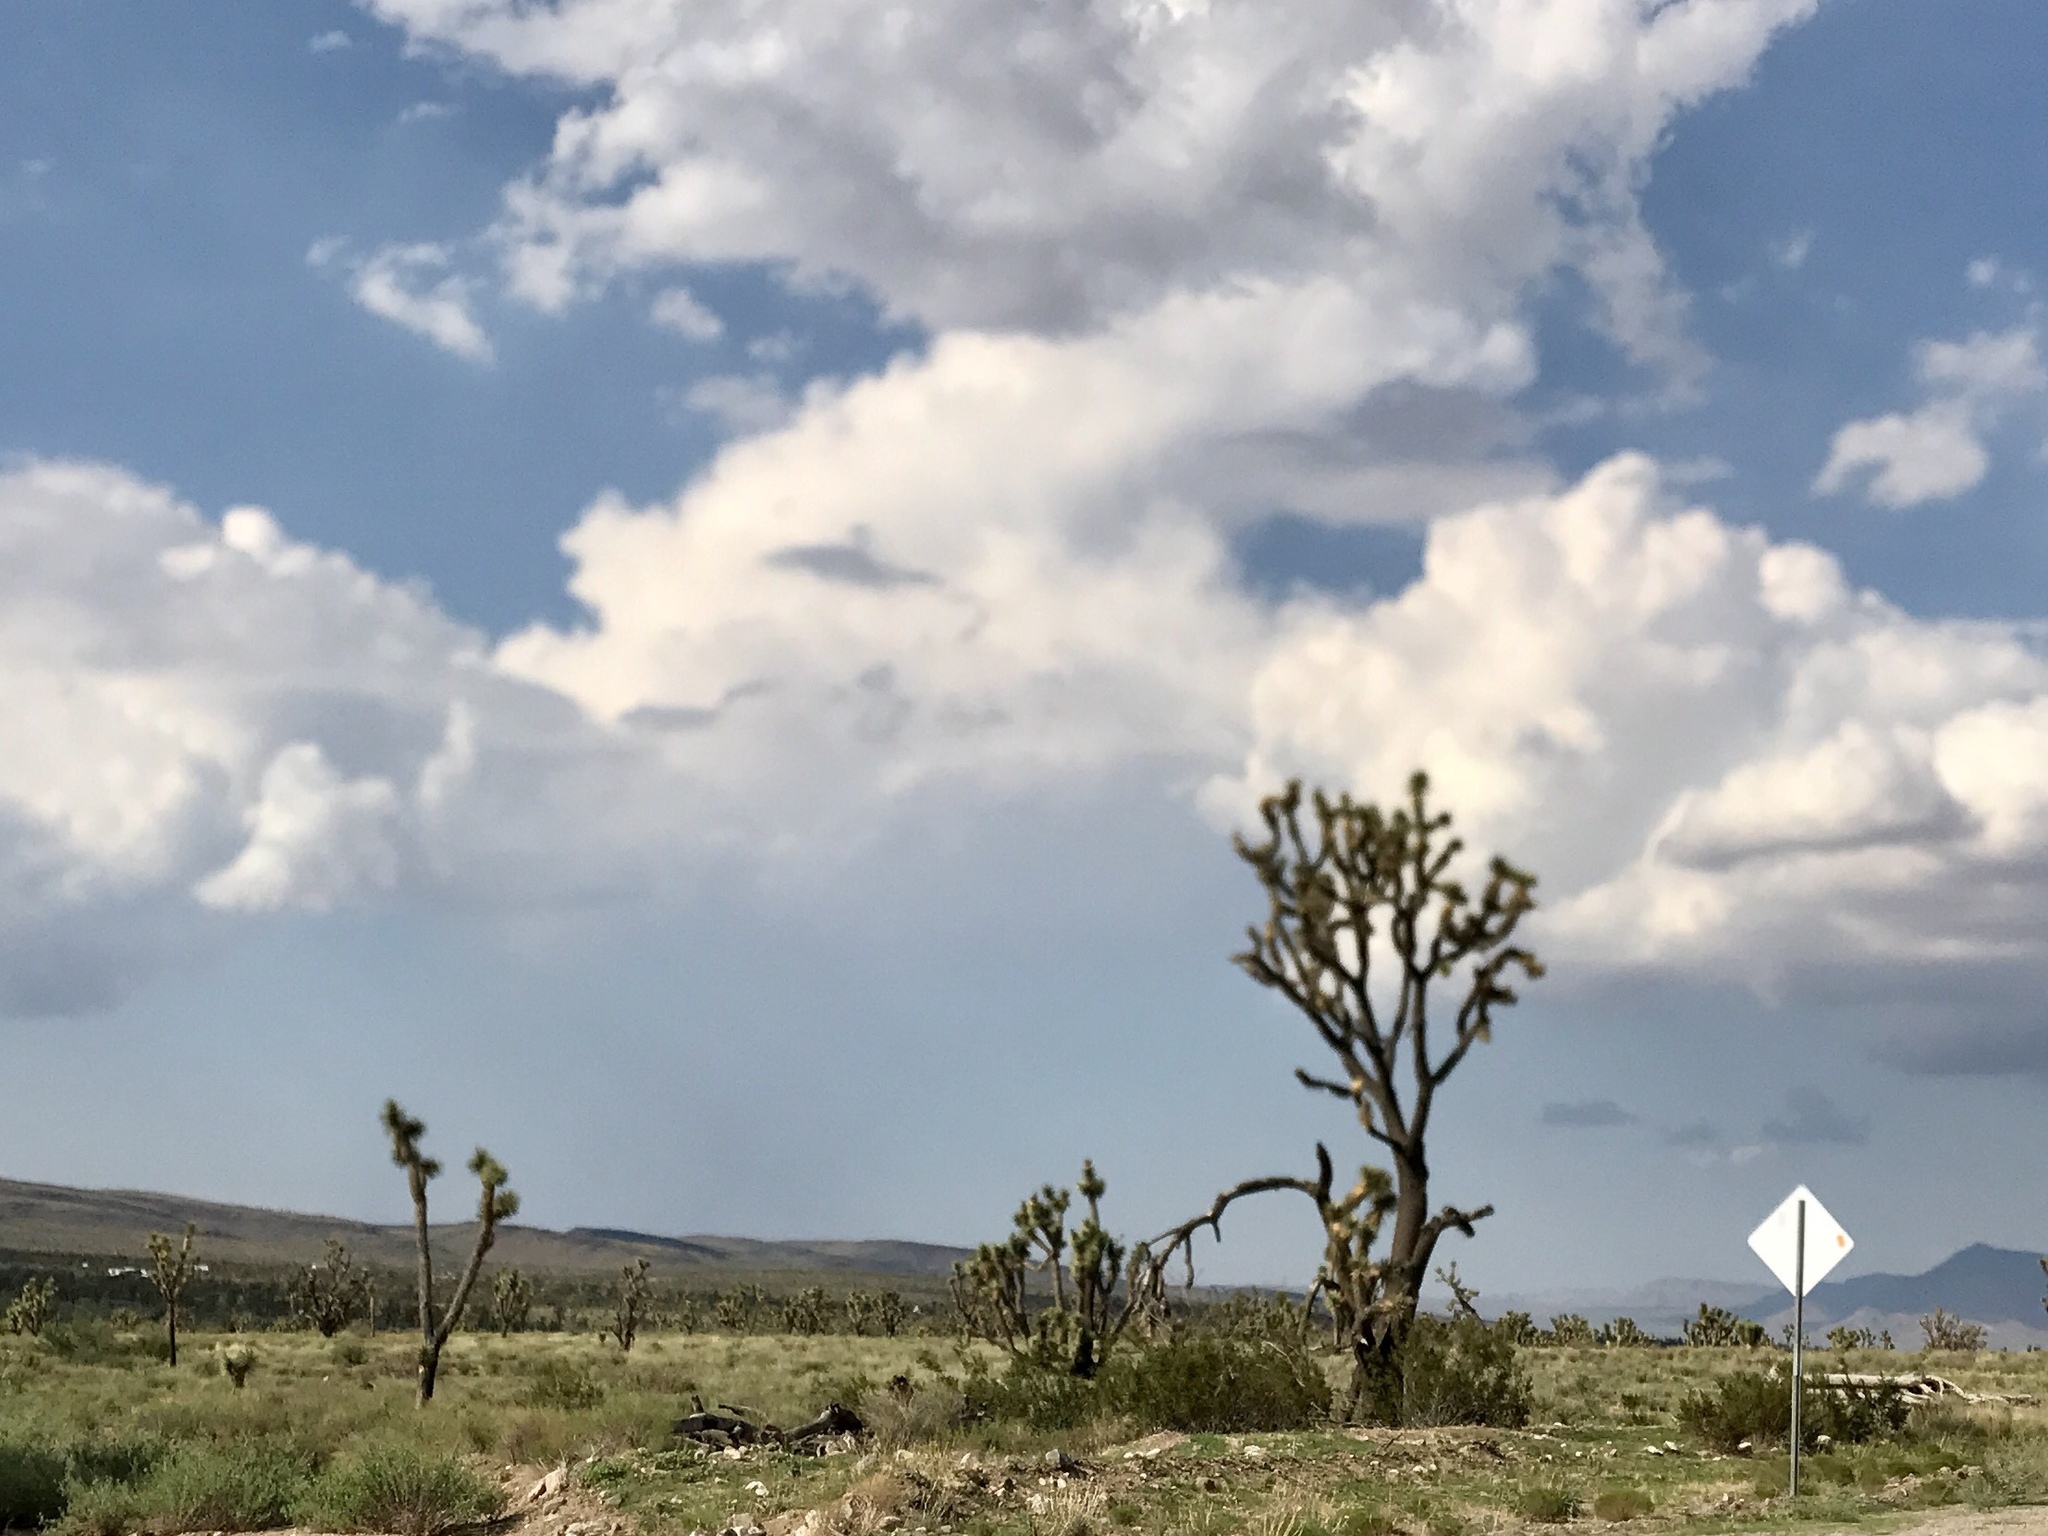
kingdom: Plantae
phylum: Tracheophyta
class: Liliopsida
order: Asparagales
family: Asparagaceae
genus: Yucca
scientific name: Yucca brevifolia
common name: Joshua tree
